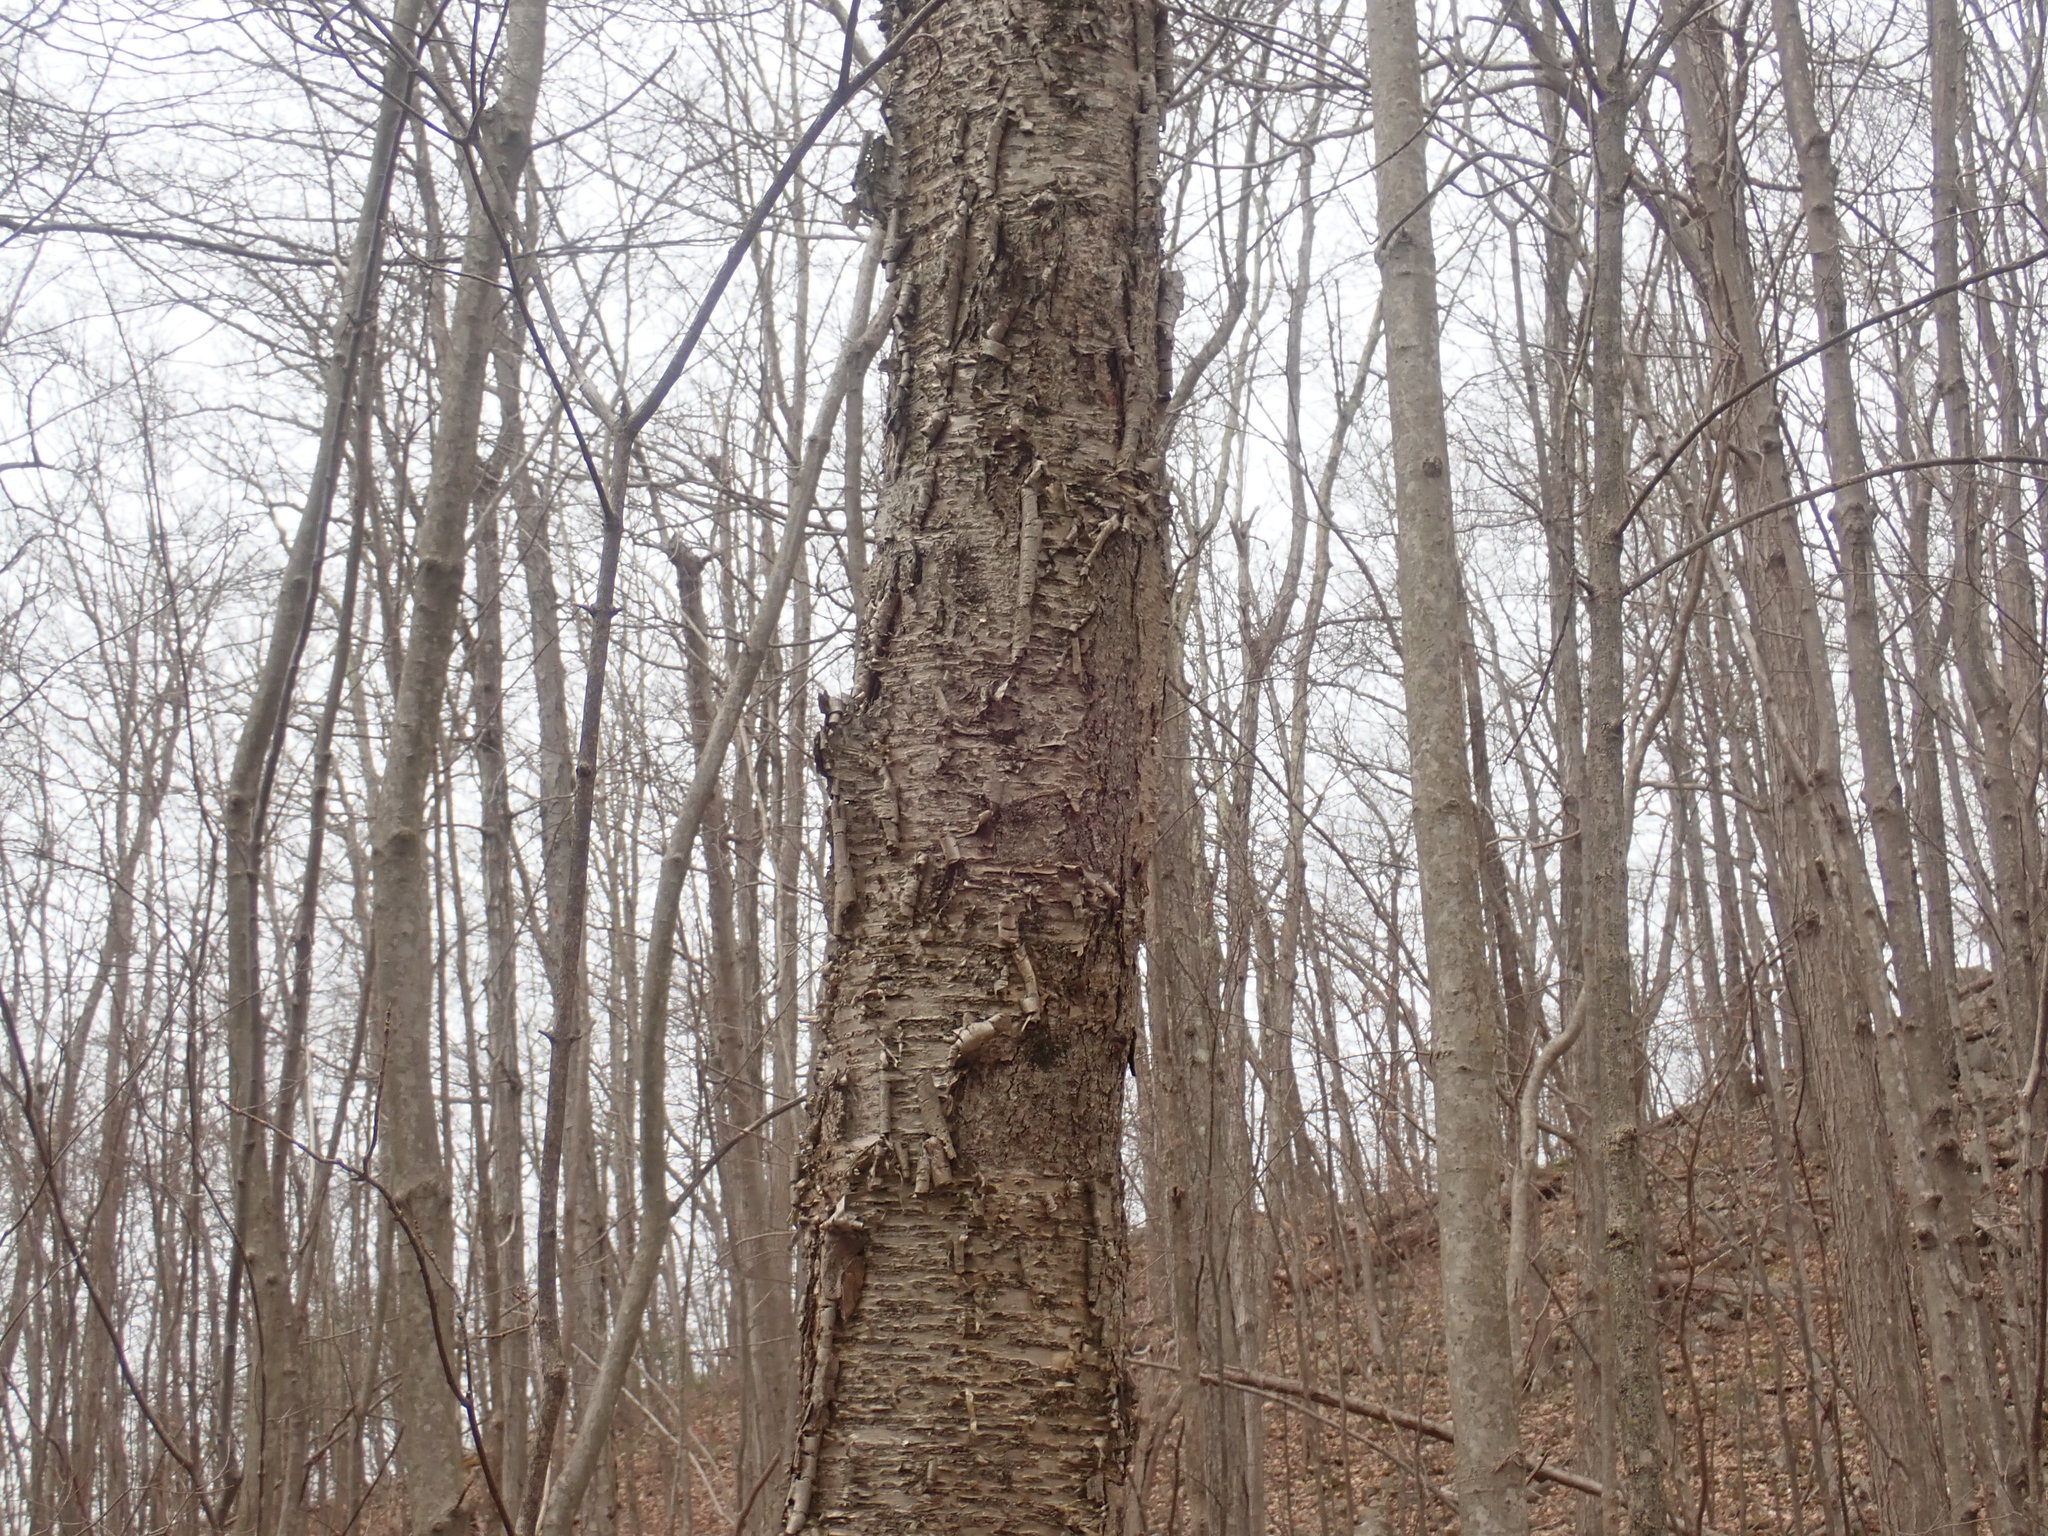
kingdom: Plantae
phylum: Tracheophyta
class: Magnoliopsida
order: Fagales
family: Betulaceae
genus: Betula
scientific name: Betula alleghaniensis
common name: Yellow birch
